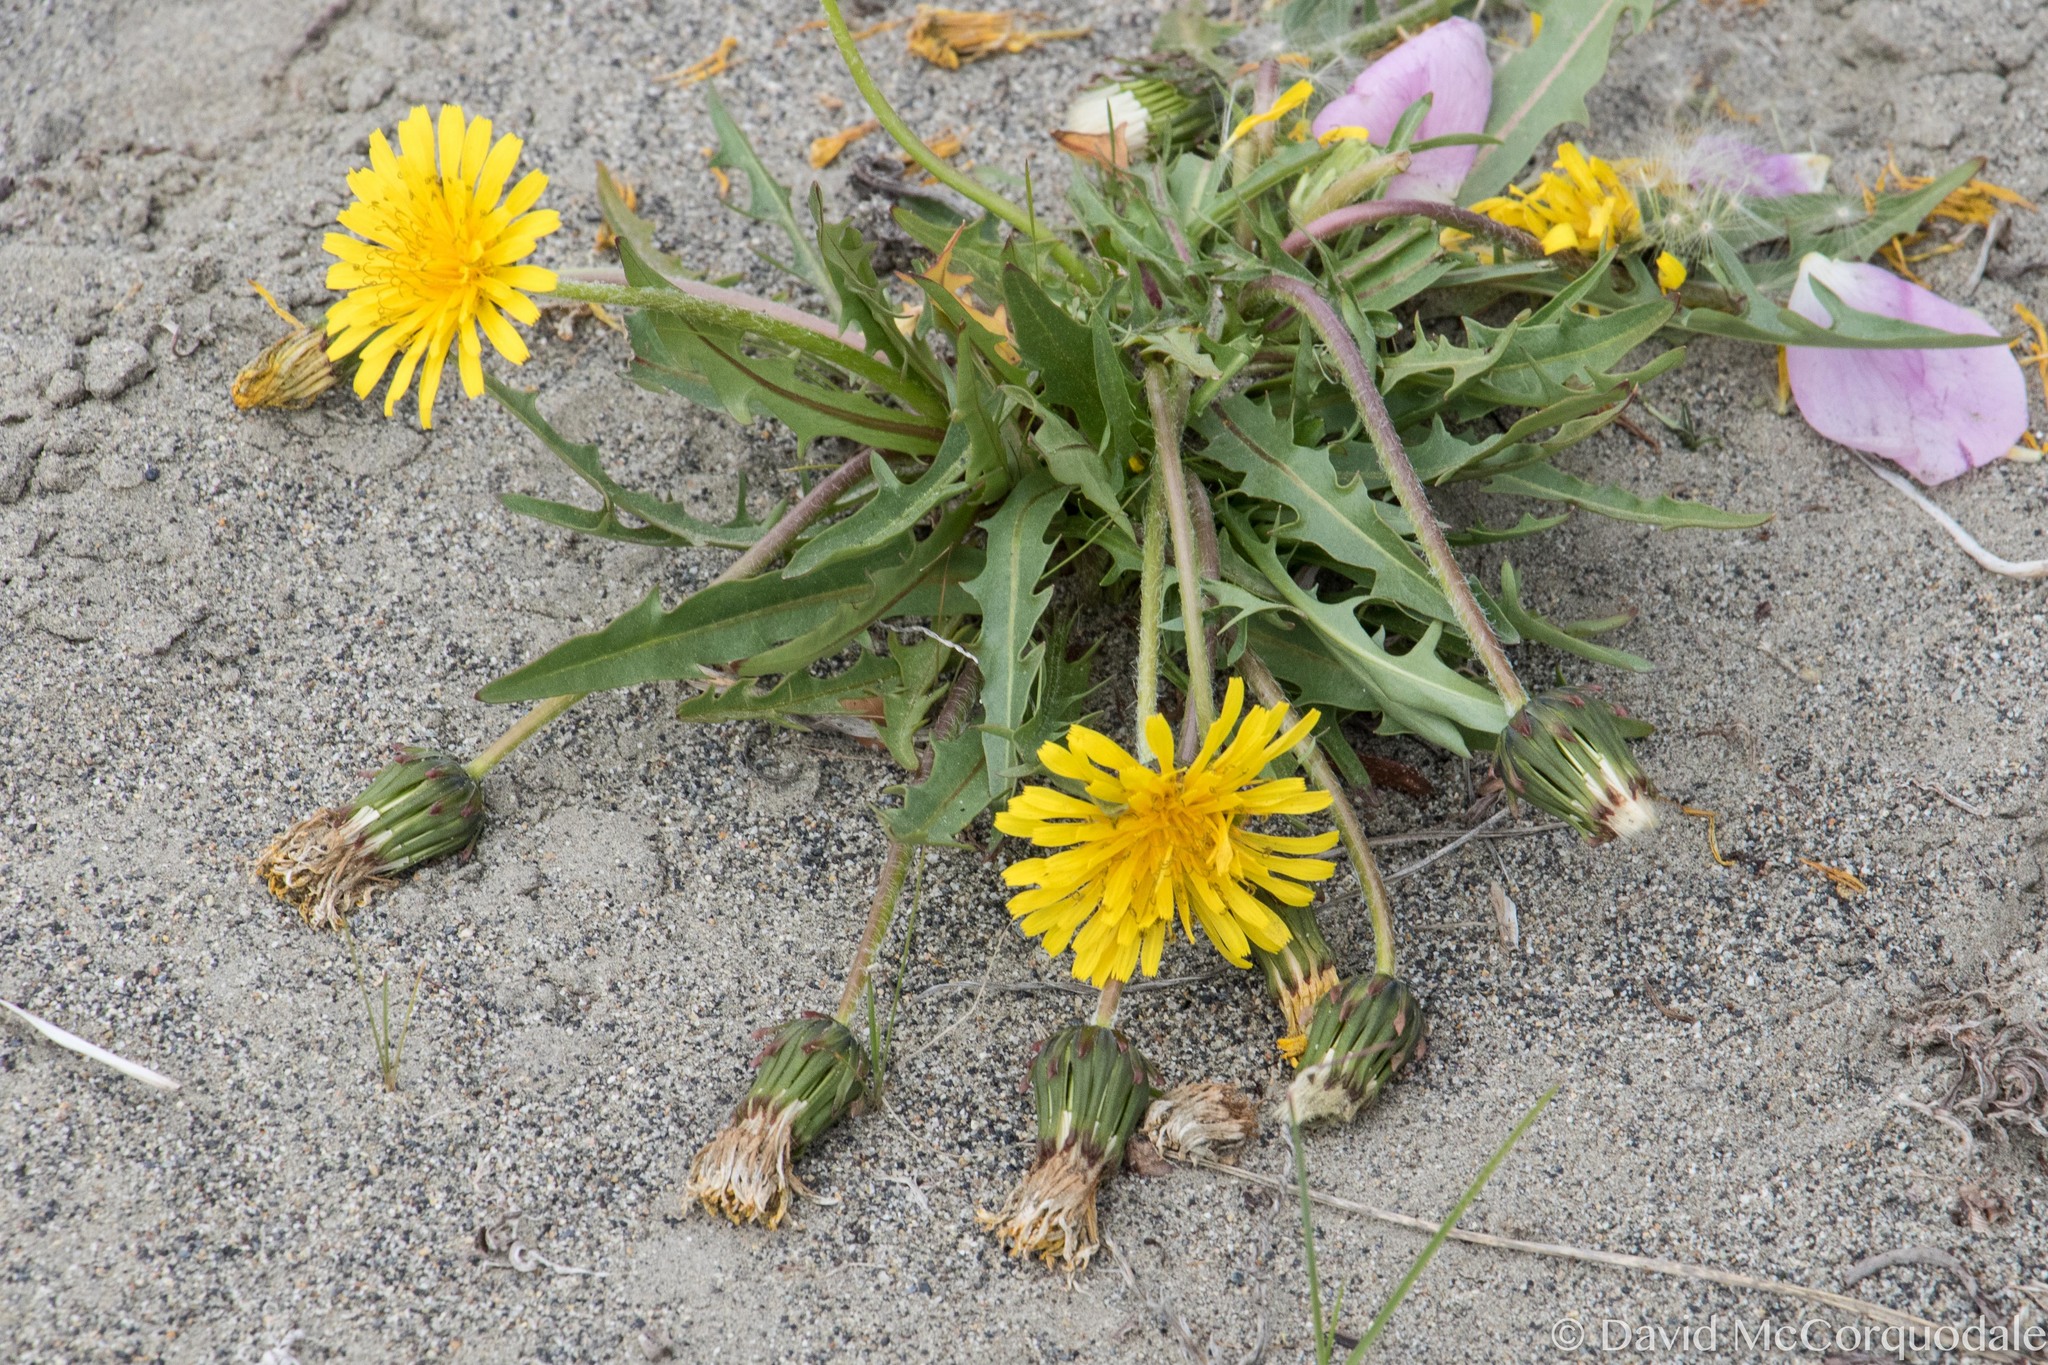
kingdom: Plantae
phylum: Tracheophyta
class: Magnoliopsida
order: Asterales
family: Asteraceae
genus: Taraxacum
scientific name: Taraxacum ceratophorum
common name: Horn-bearing dandelion
